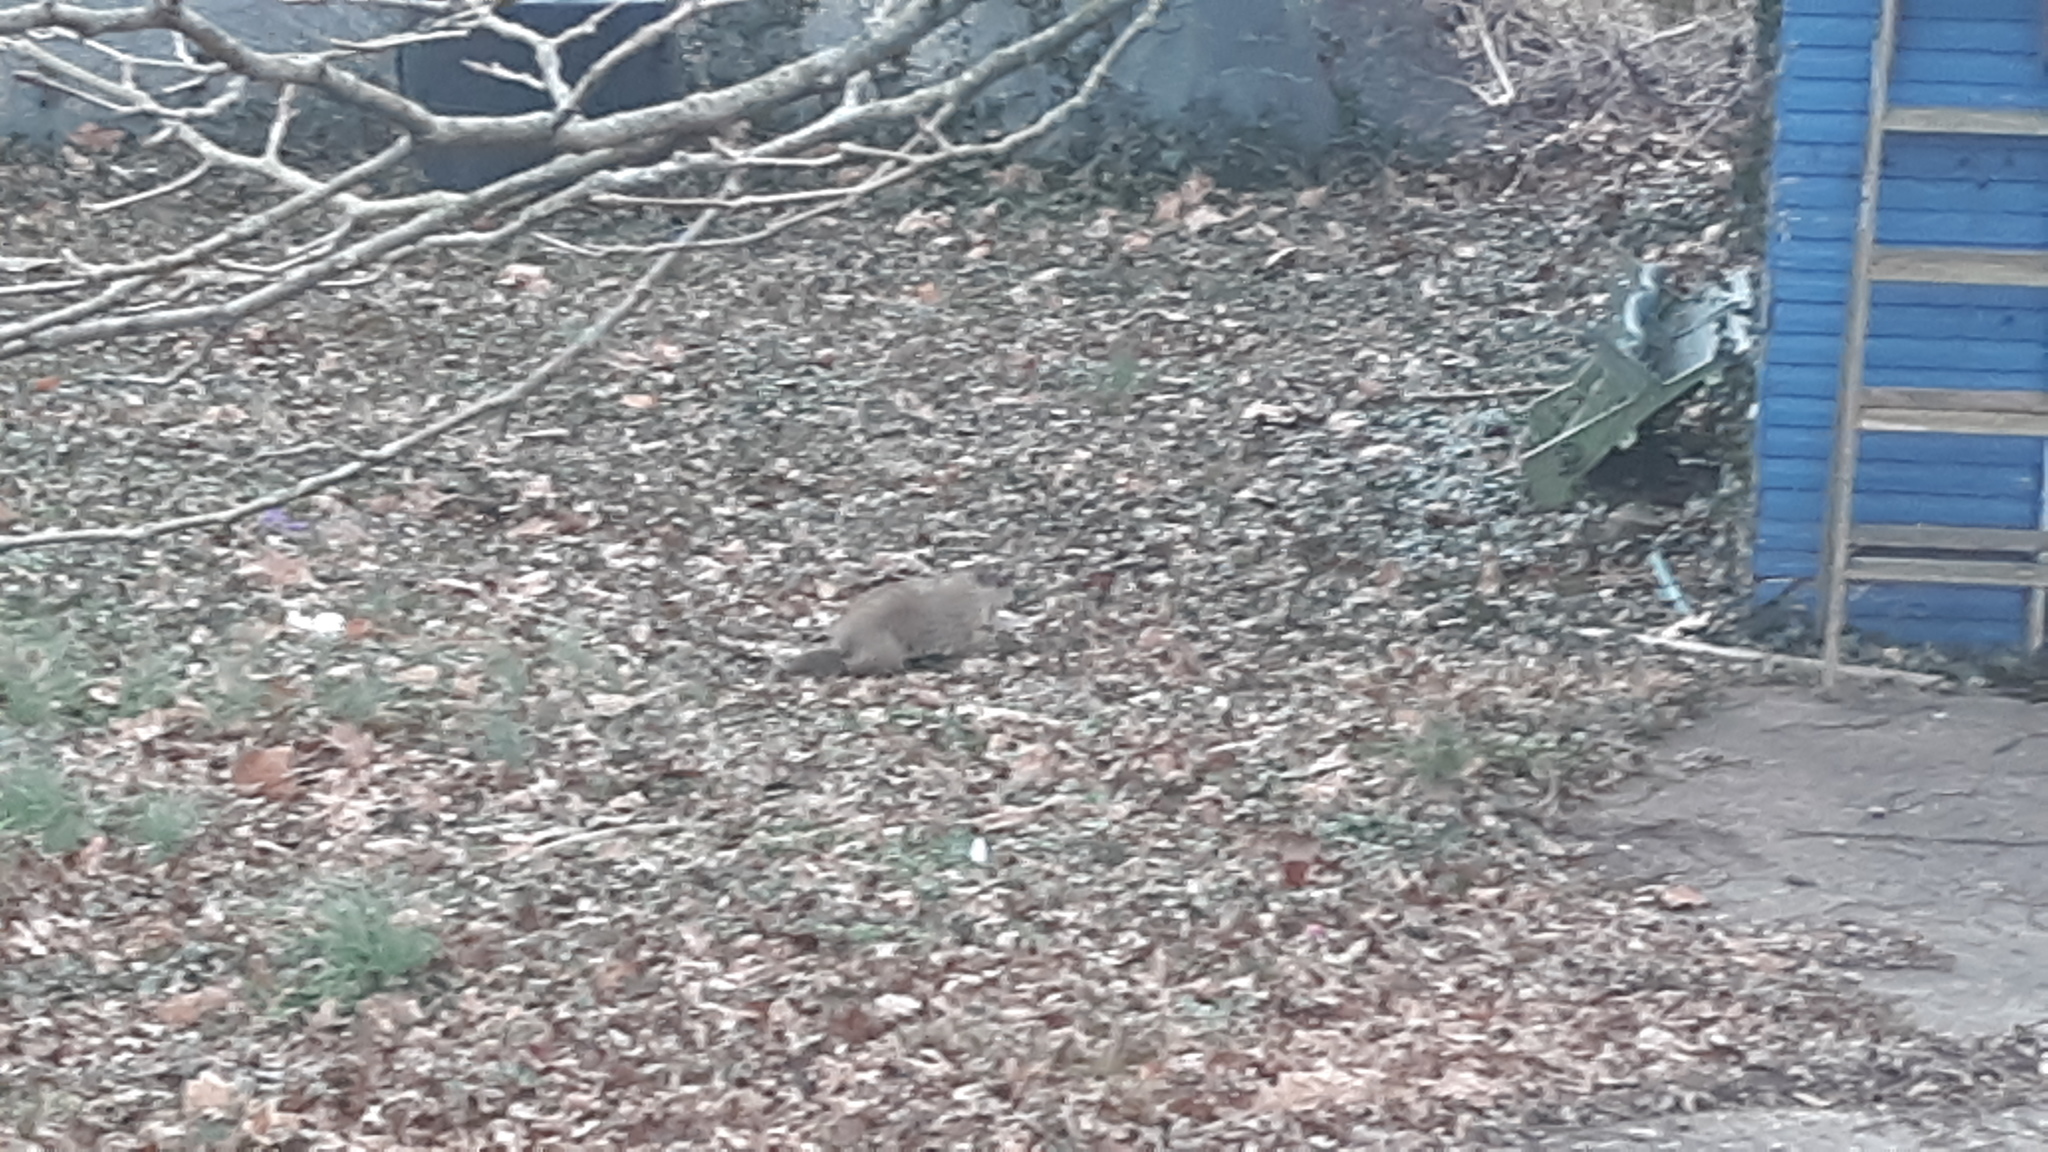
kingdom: Animalia
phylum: Chordata
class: Mammalia
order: Rodentia
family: Sciuridae
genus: Marmota
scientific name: Marmota monax
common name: Groundhog
